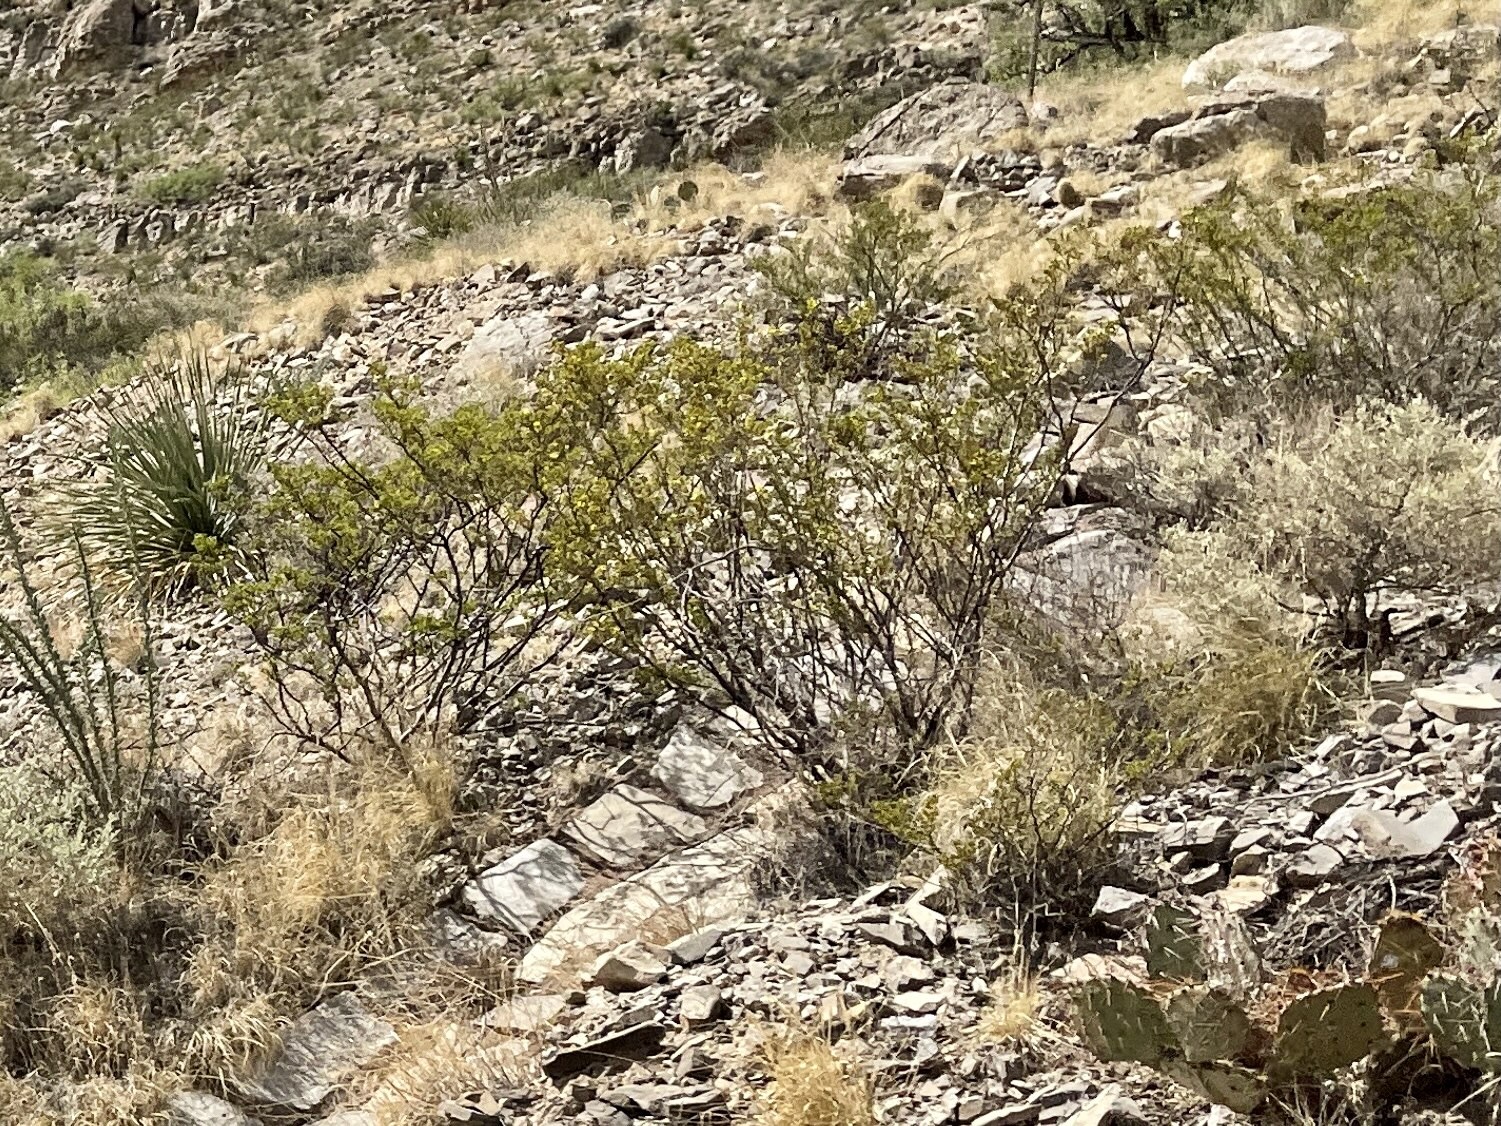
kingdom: Plantae
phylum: Tracheophyta
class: Magnoliopsida
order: Zygophyllales
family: Zygophyllaceae
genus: Larrea
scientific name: Larrea tridentata
